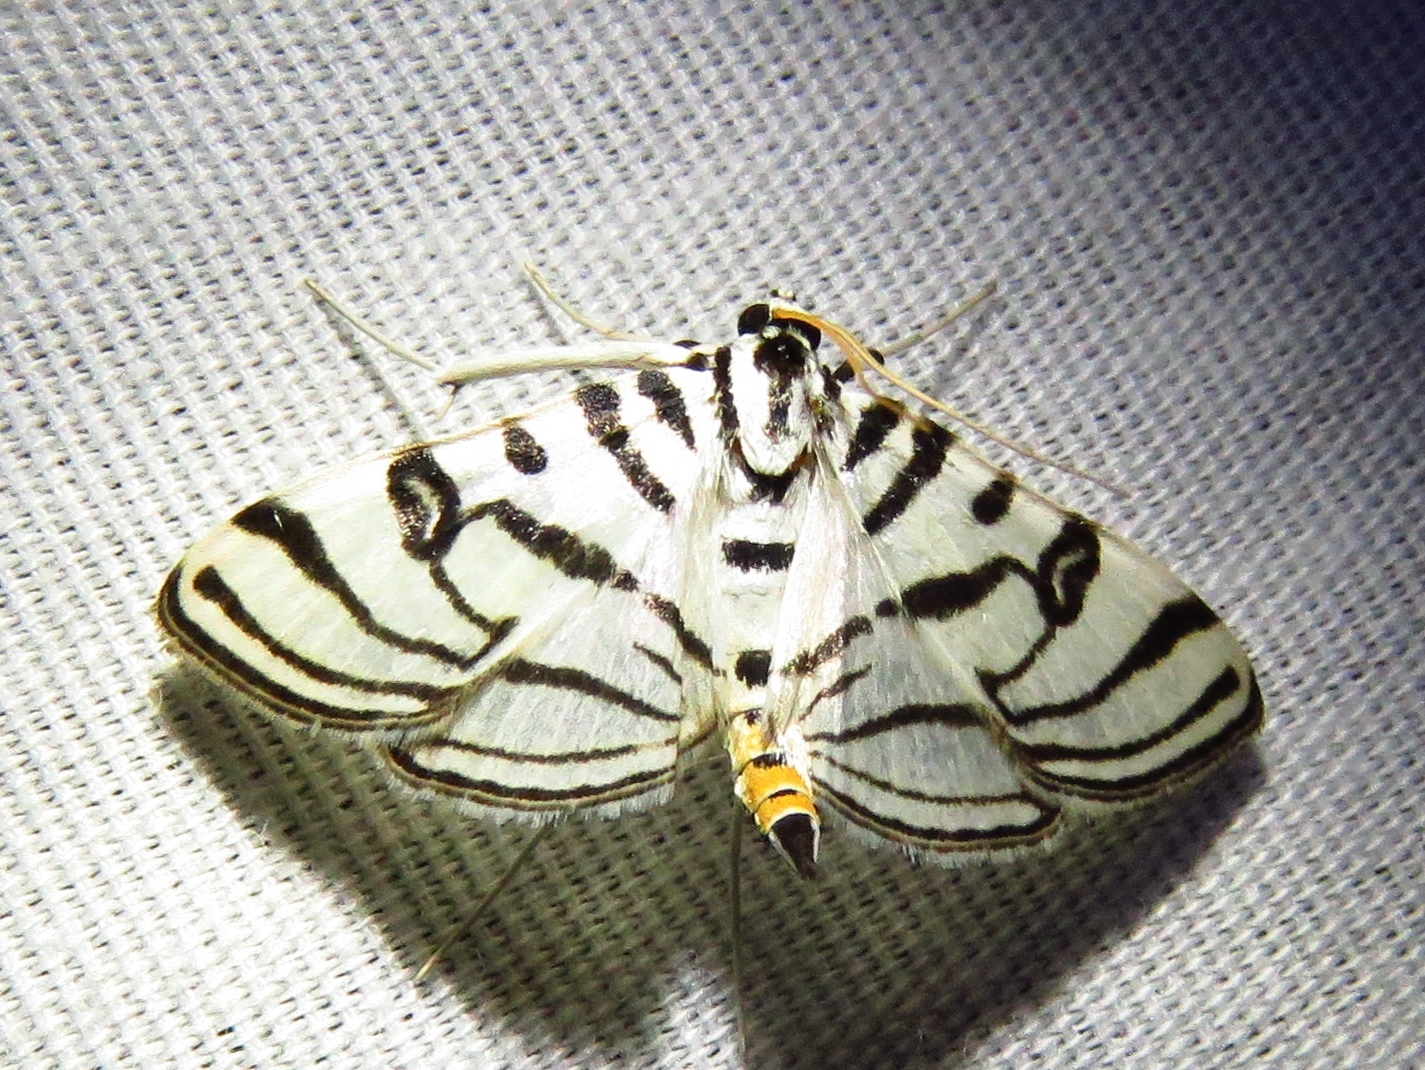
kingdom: Animalia
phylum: Arthropoda
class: Insecta
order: Lepidoptera
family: Crambidae
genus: Conchylodes
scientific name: Conchylodes ovulalis
